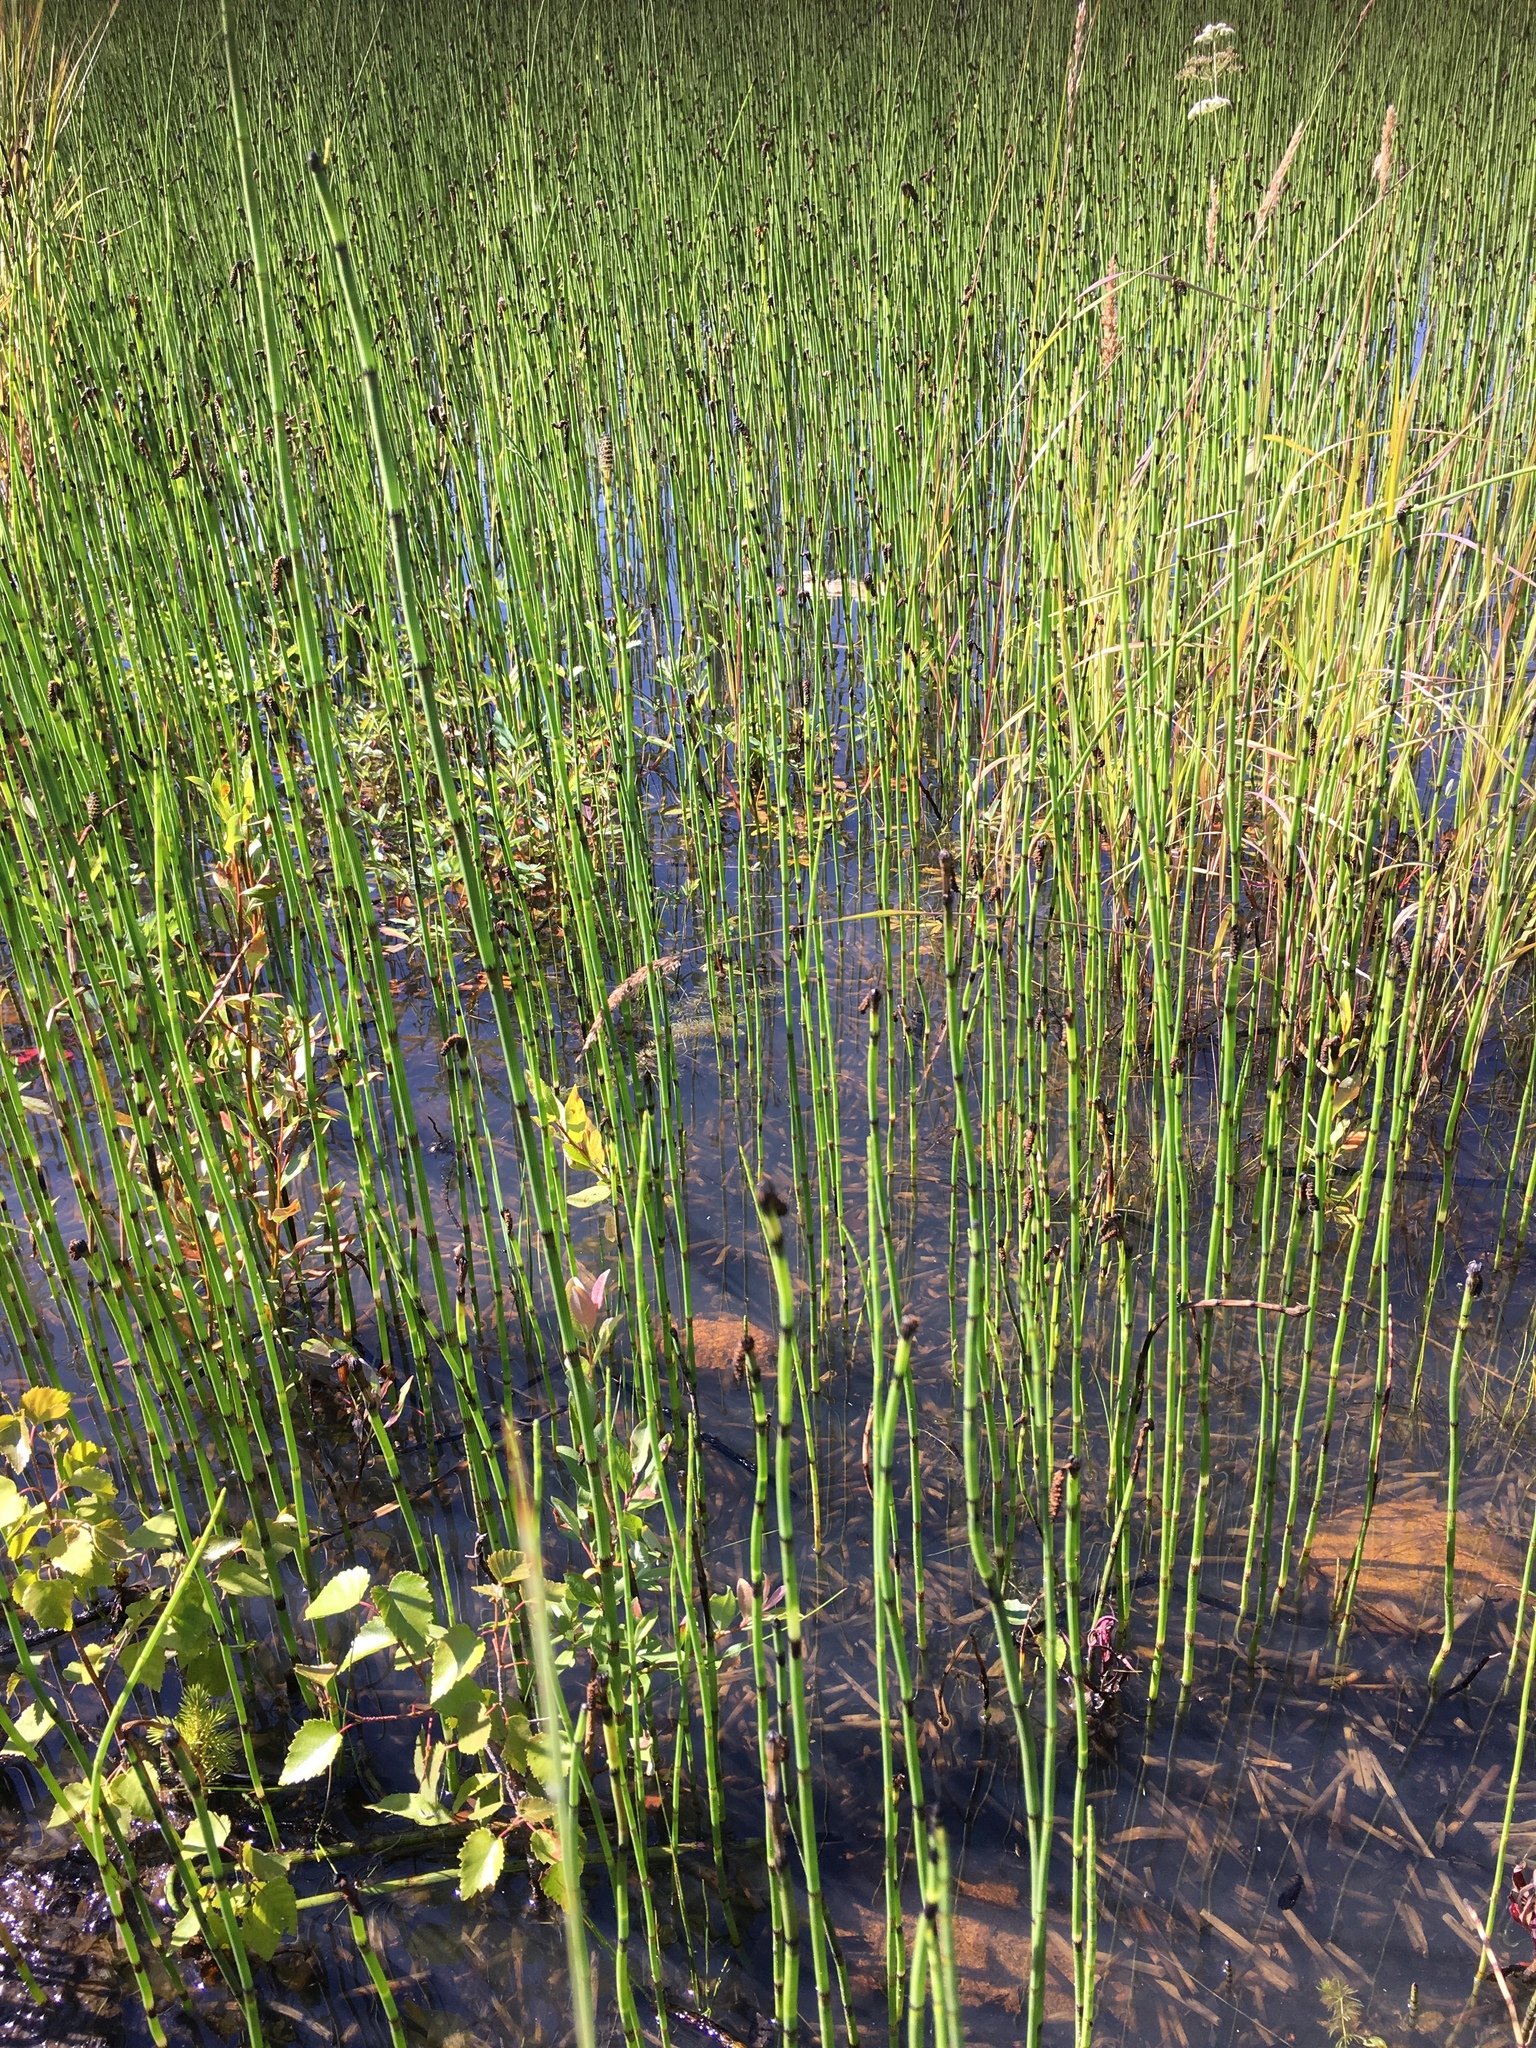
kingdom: Plantae
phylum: Tracheophyta
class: Polypodiopsida
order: Equisetales
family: Equisetaceae
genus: Equisetum
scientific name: Equisetum fluviatile
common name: Water horsetail
